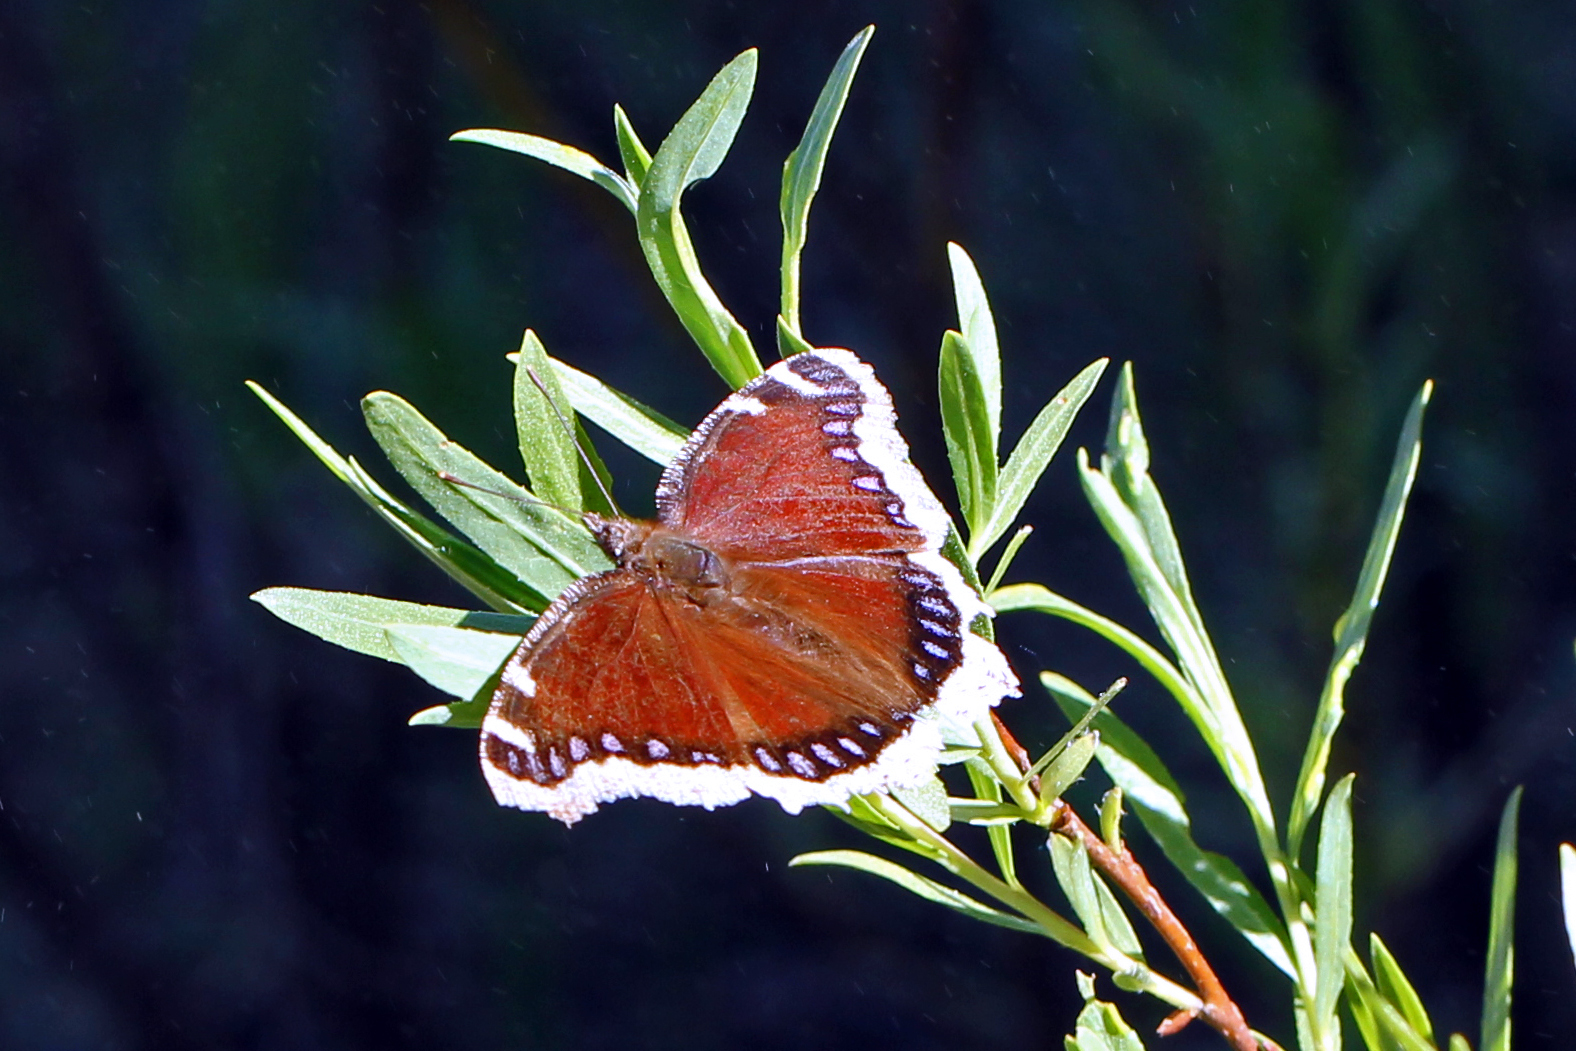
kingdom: Animalia
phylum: Arthropoda
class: Insecta
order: Lepidoptera
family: Nymphalidae
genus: Nymphalis
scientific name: Nymphalis antiopa
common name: Camberwell beauty
